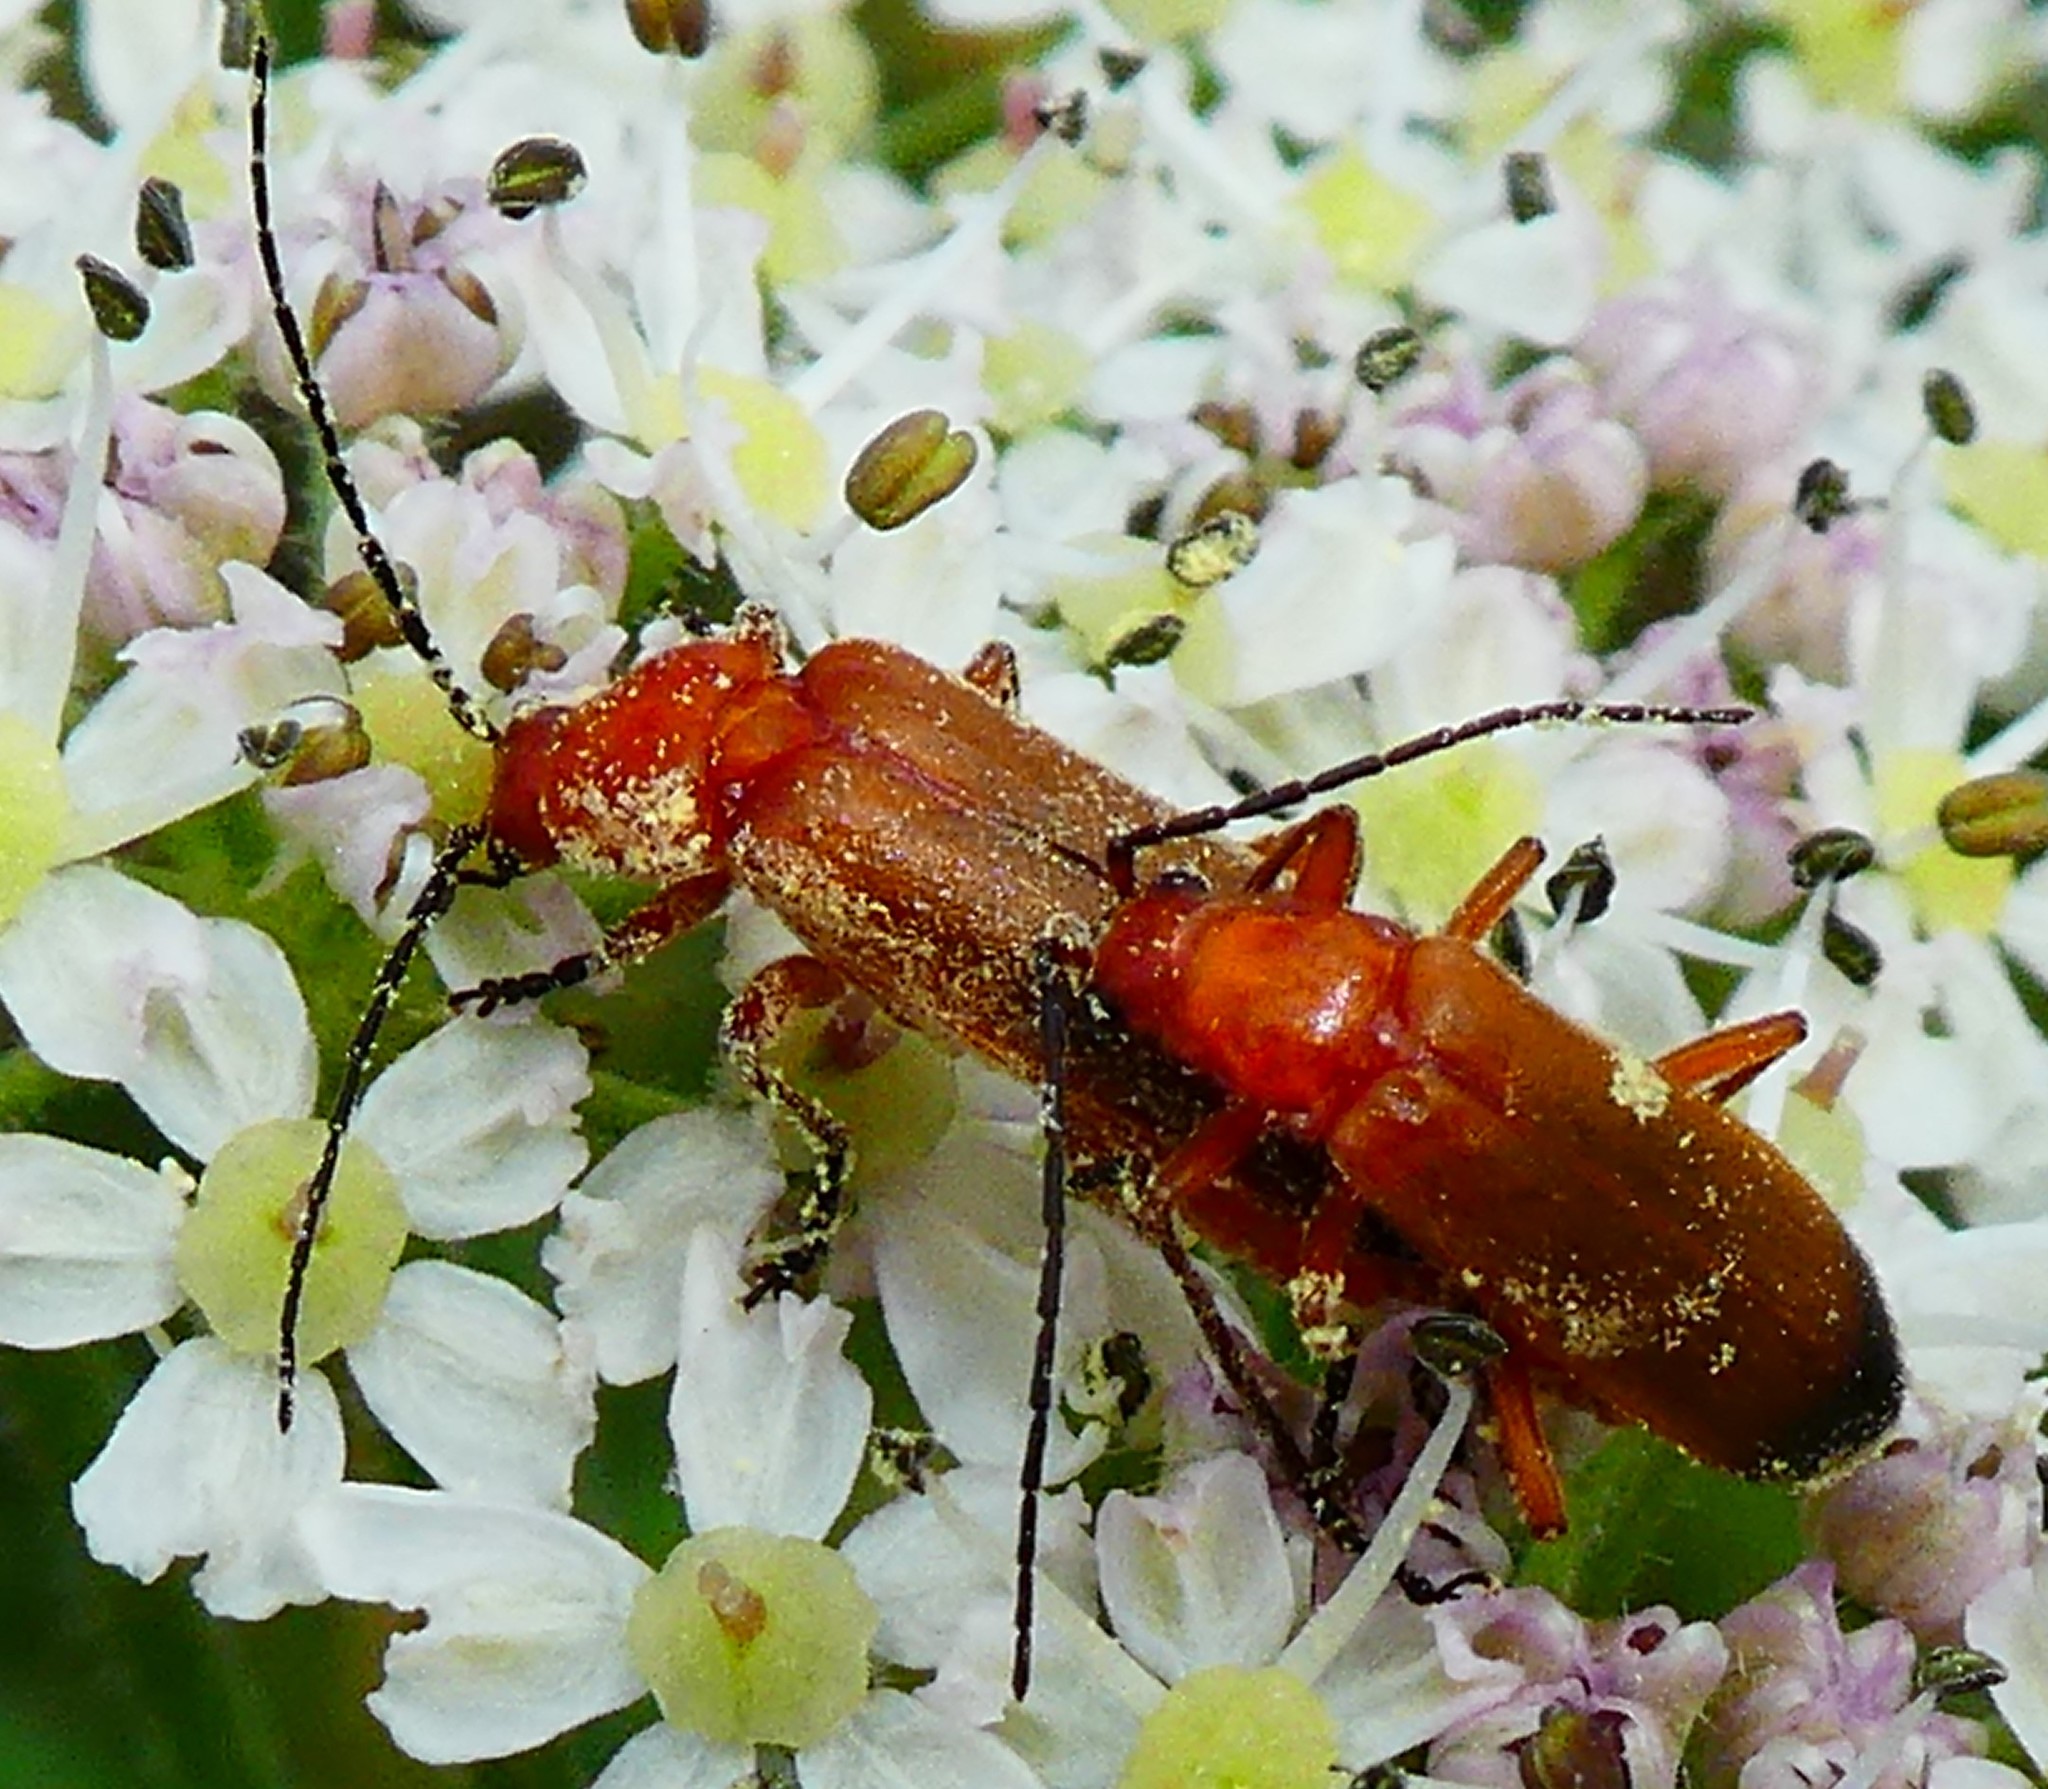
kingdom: Animalia
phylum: Arthropoda
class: Insecta
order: Coleoptera
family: Cantharidae
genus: Rhagonycha
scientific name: Rhagonycha fulva
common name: Common red soldier beetle
